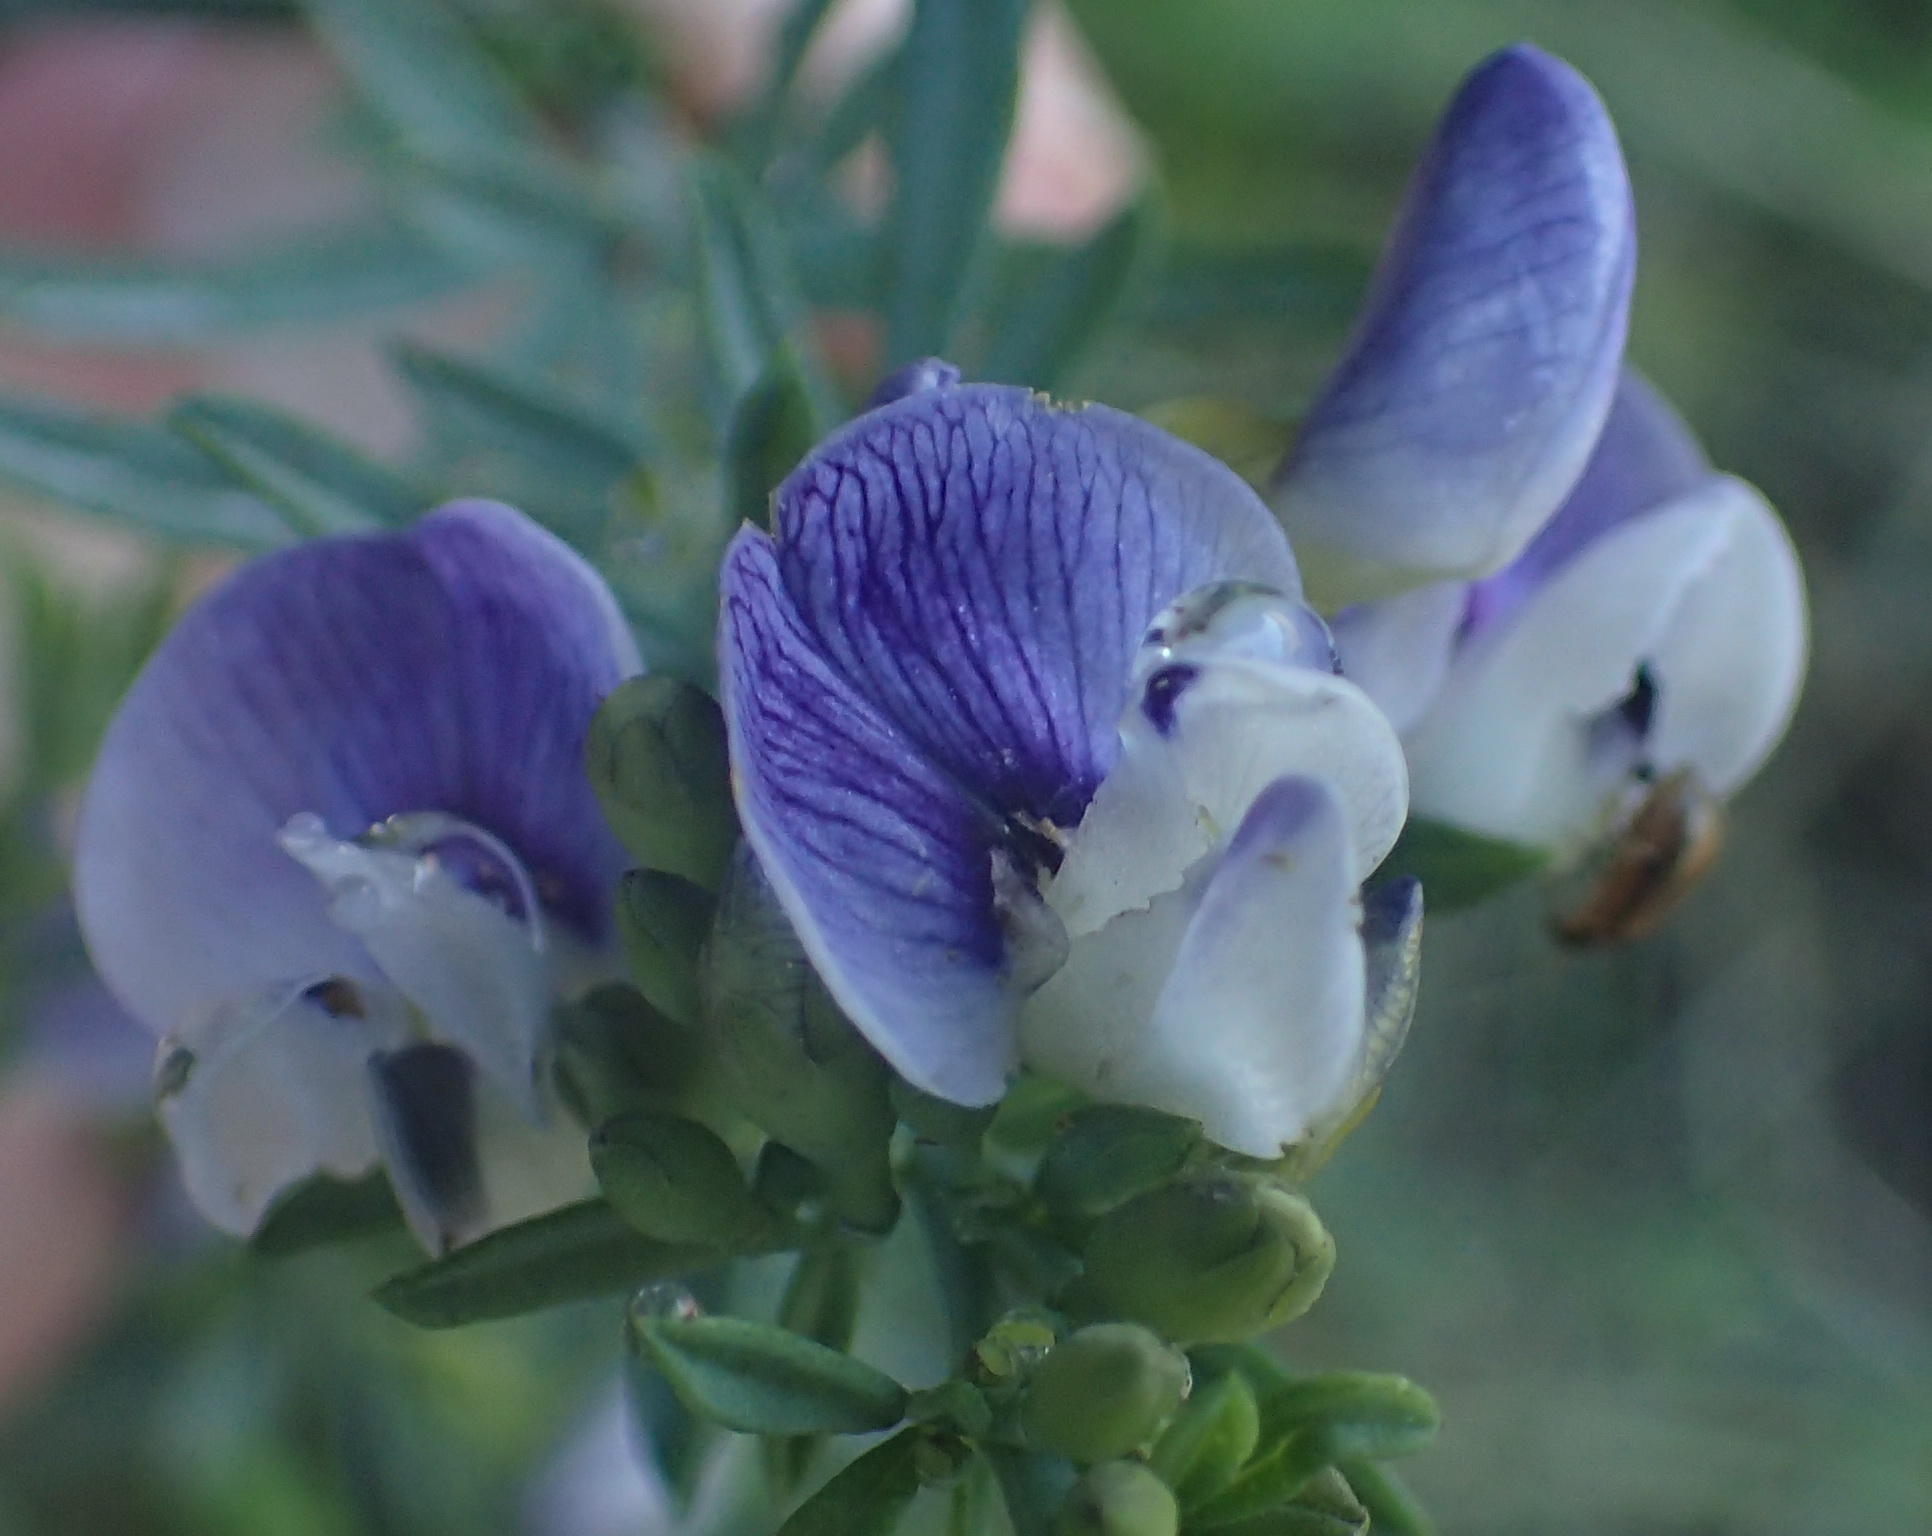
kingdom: Plantae
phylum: Tracheophyta
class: Magnoliopsida
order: Fabales
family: Fabaceae
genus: Psoralea
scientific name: Psoralea axillaris
